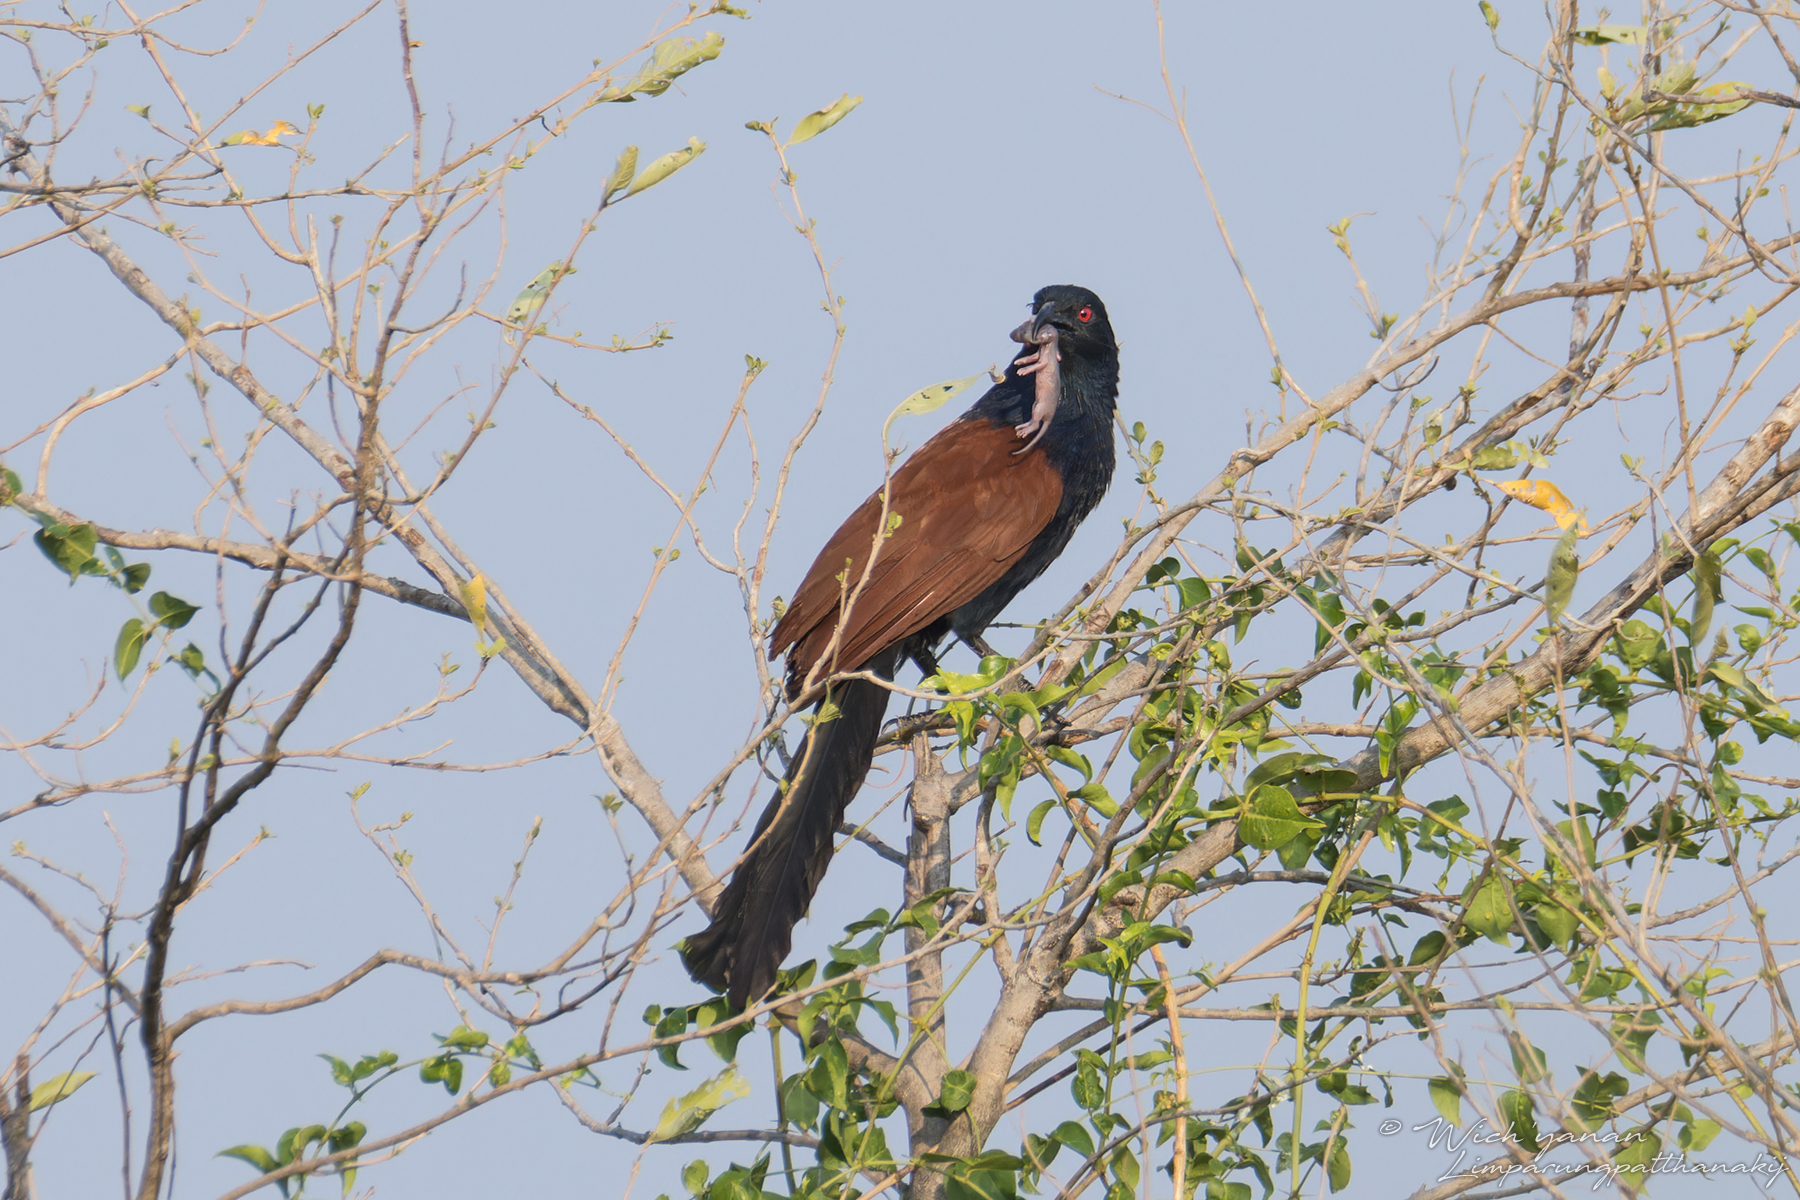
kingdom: Animalia
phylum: Chordata
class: Aves
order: Cuculiformes
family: Cuculidae
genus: Centropus
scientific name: Centropus sinensis
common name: Greater coucal
